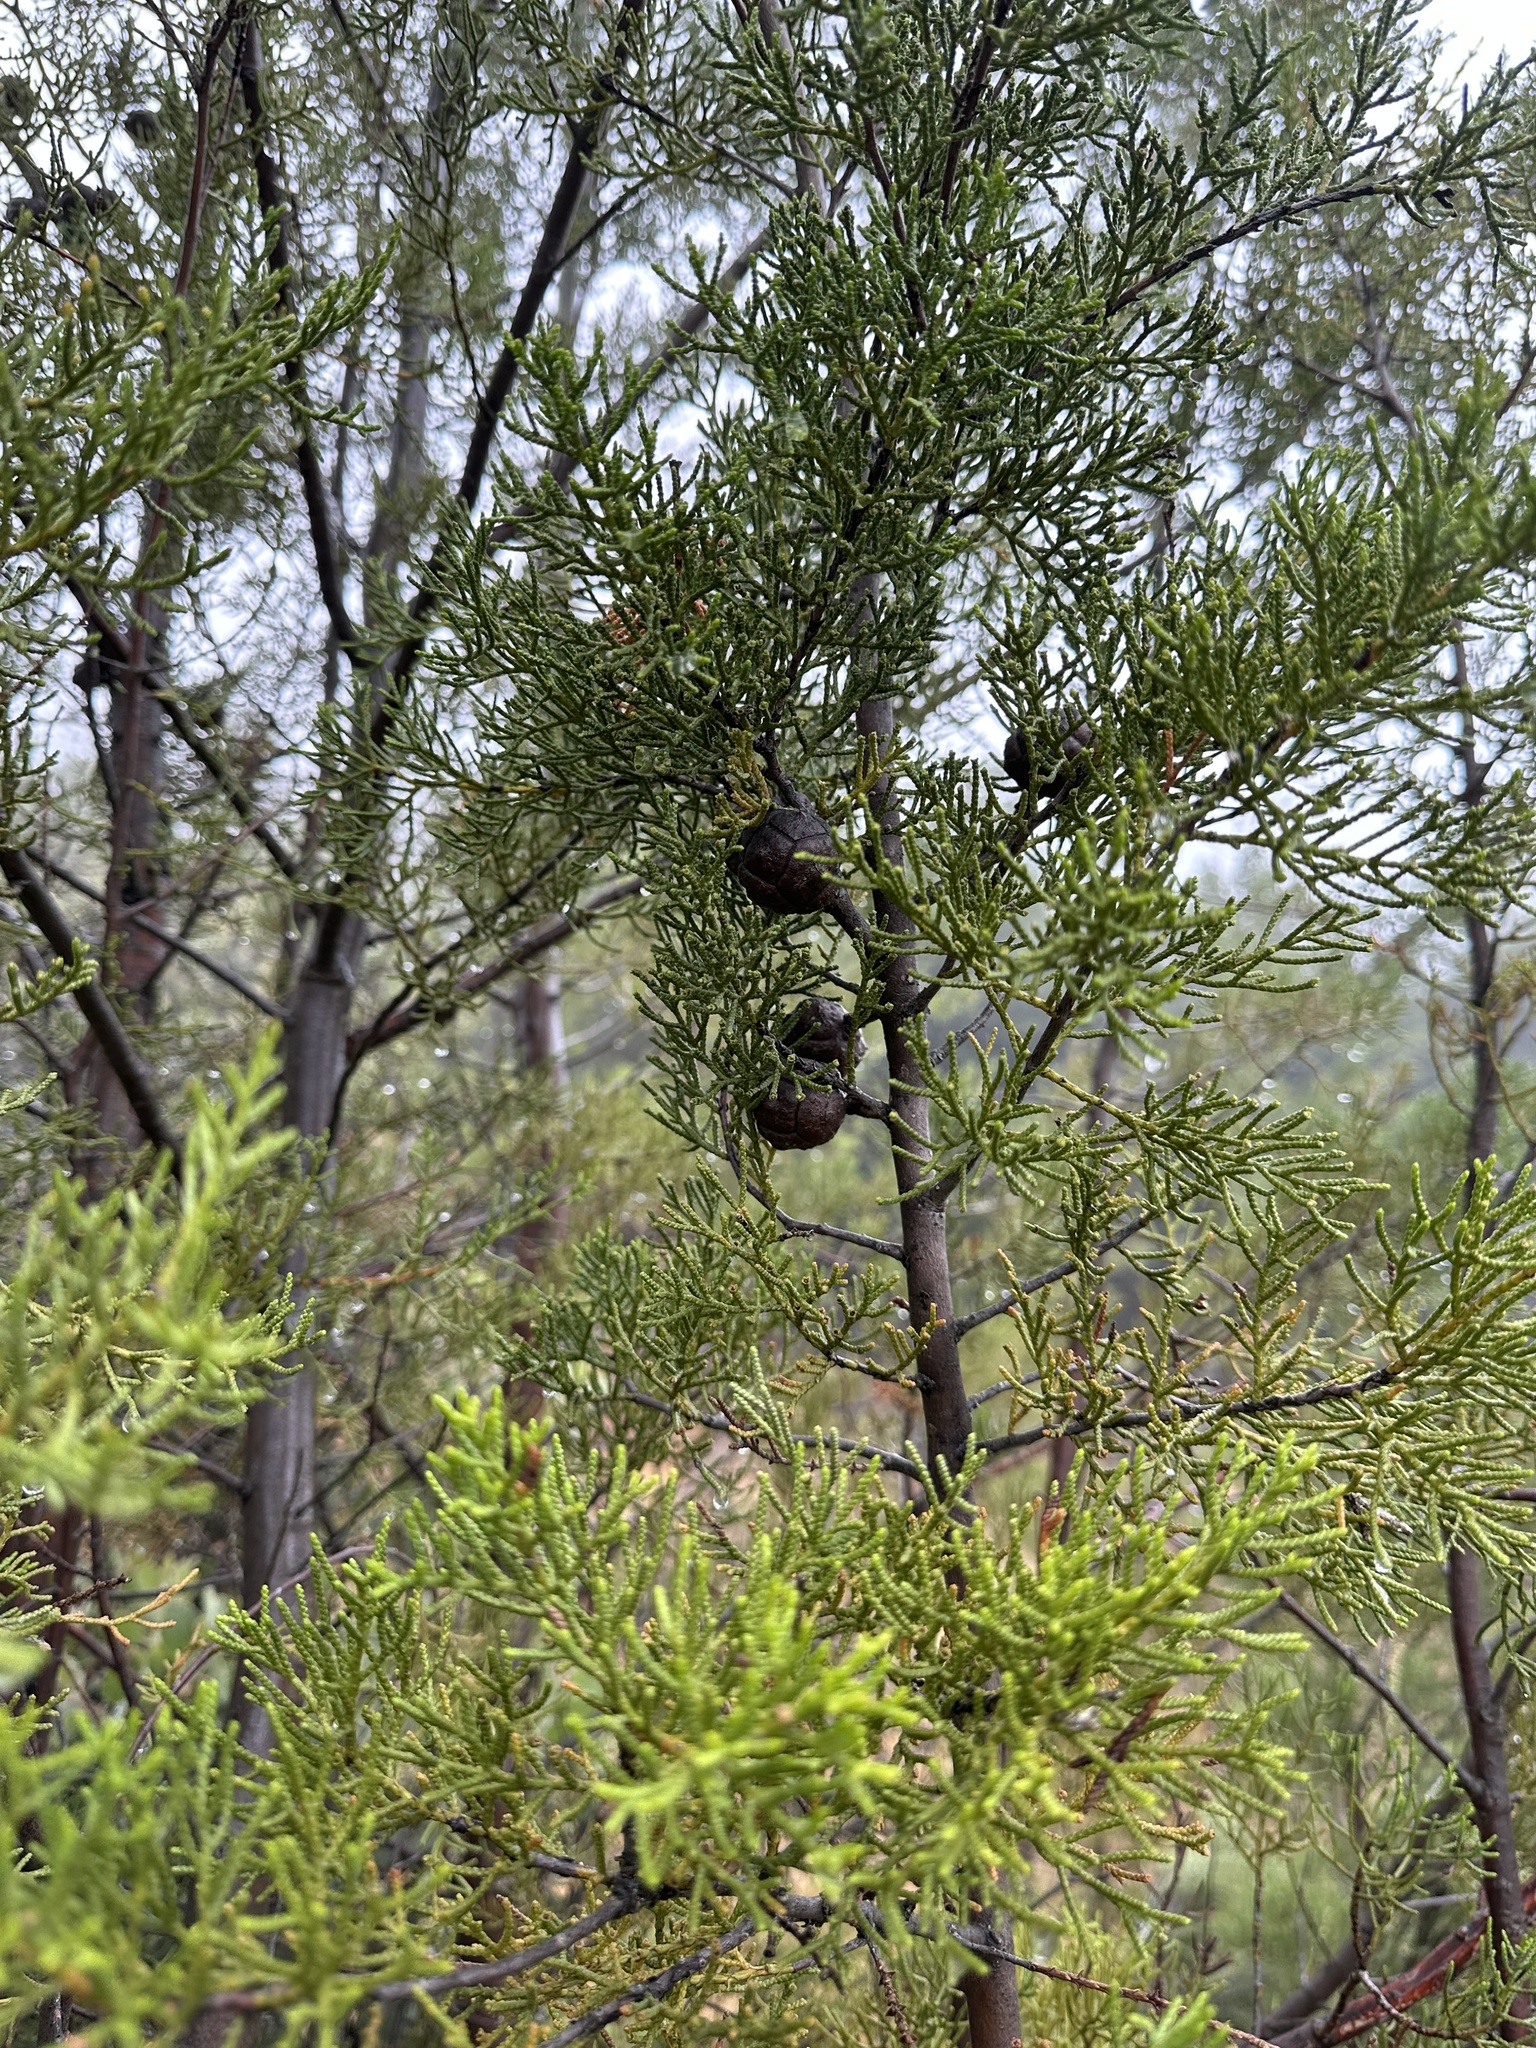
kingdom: Plantae
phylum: Tracheophyta
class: Pinopsida
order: Pinales
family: Cupressaceae
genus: Cupressus
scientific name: Cupressus guadalupensis
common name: Forbes cypress
